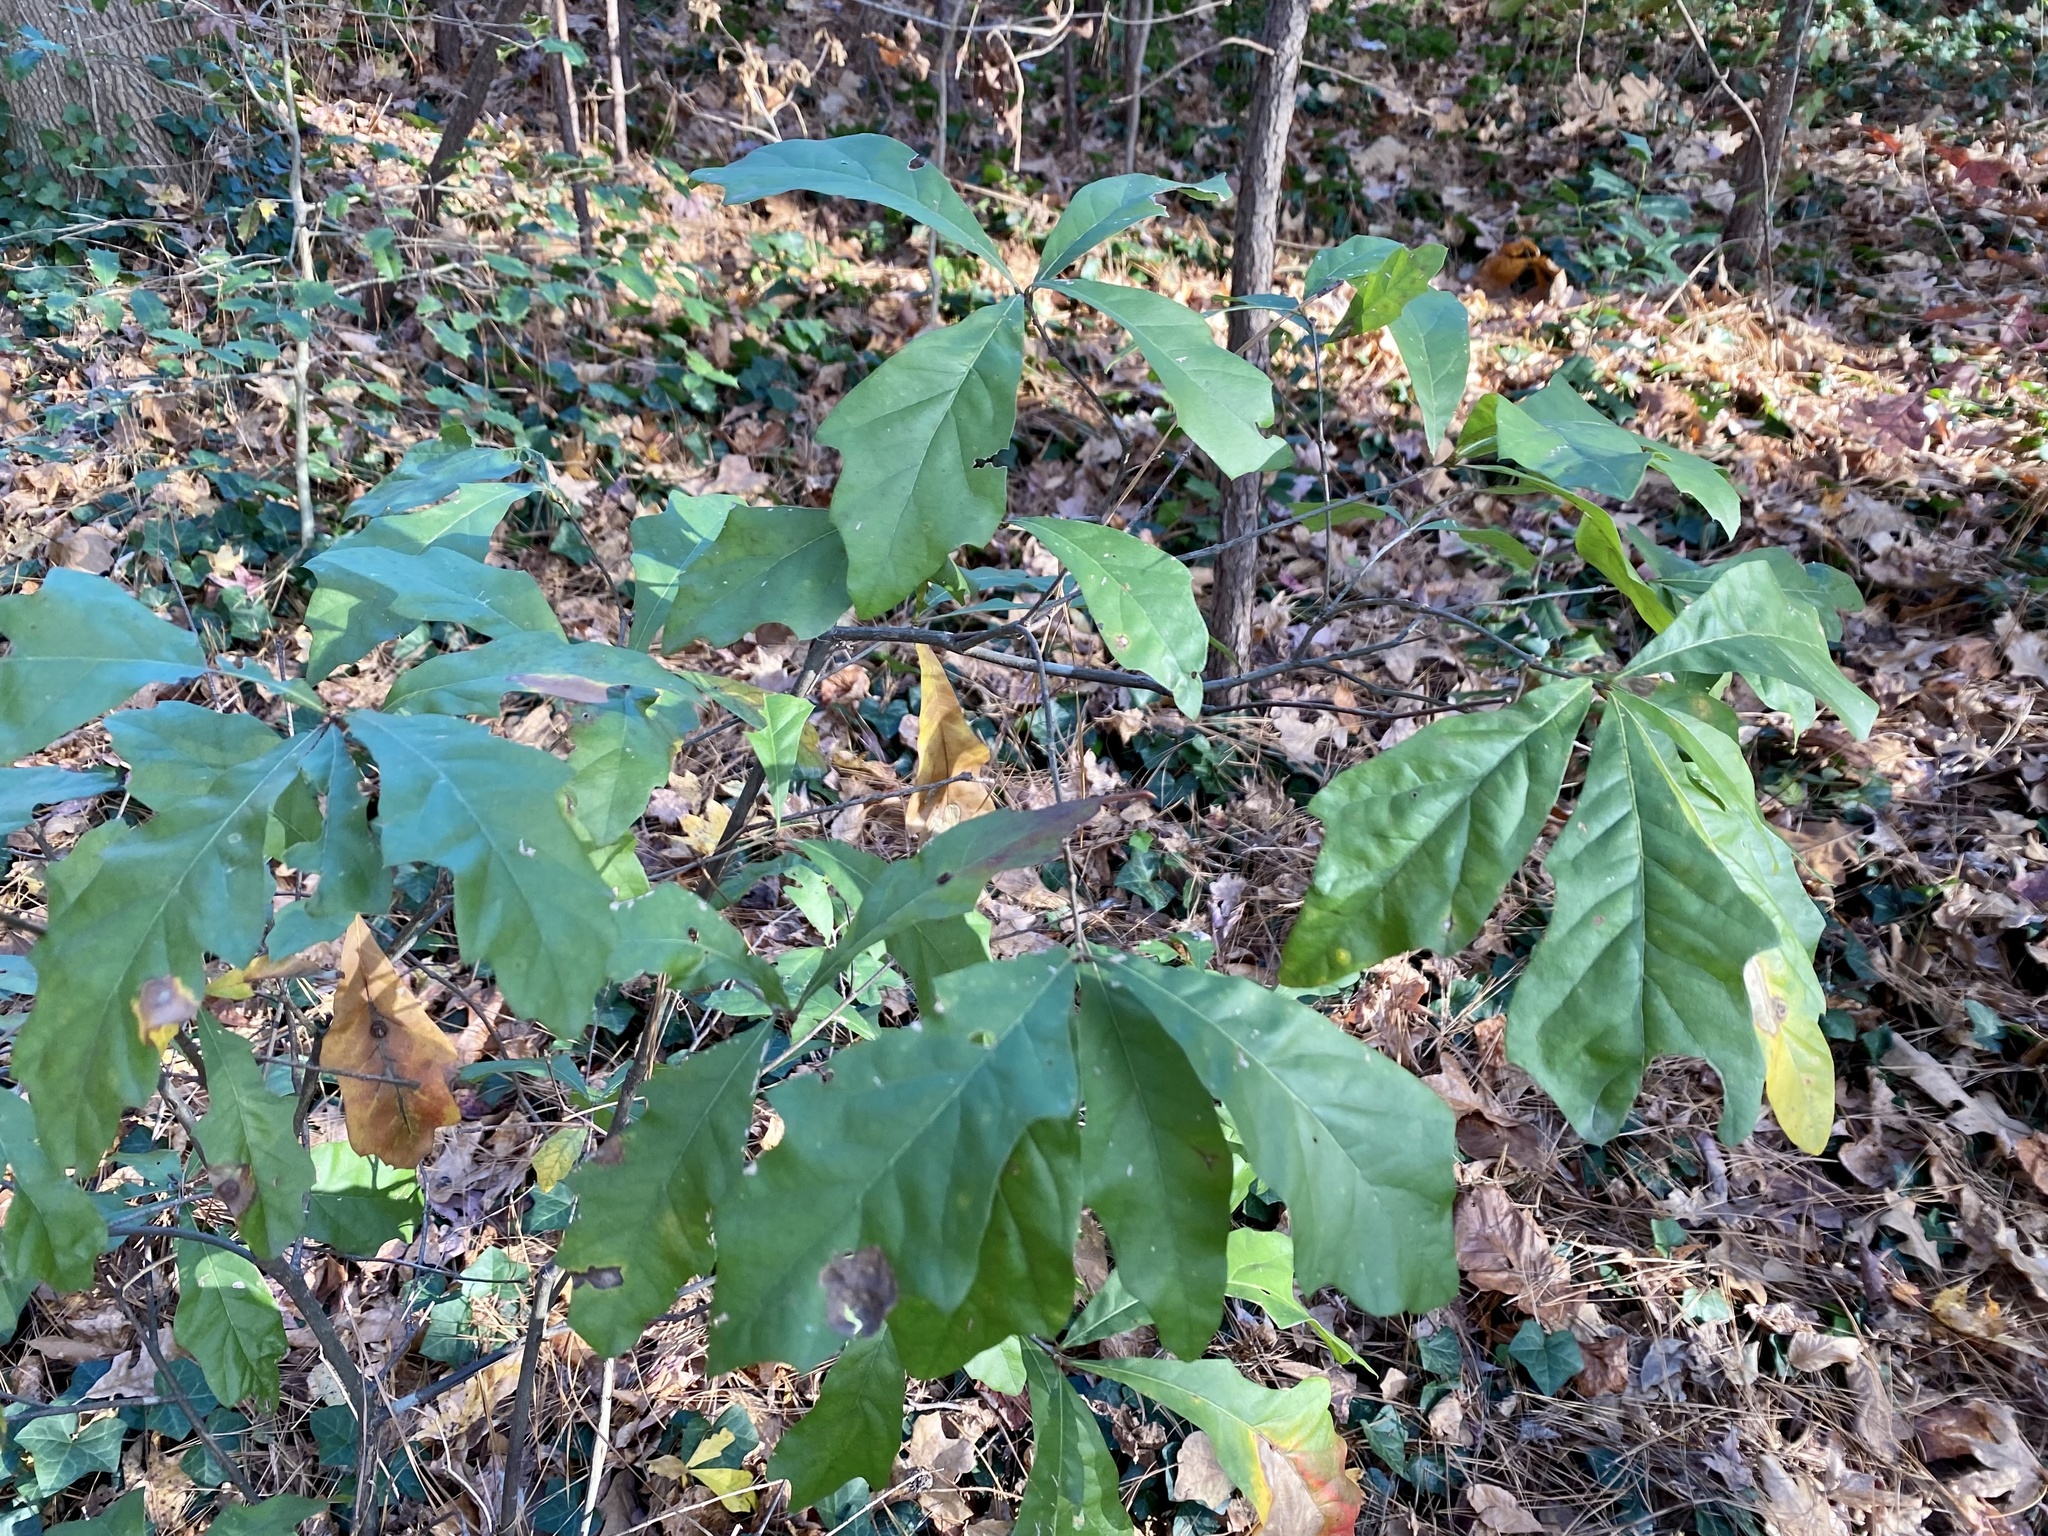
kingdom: Plantae
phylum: Tracheophyta
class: Magnoliopsida
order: Fagales
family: Fagaceae
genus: Quercus
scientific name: Quercus nigra
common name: Water oak
